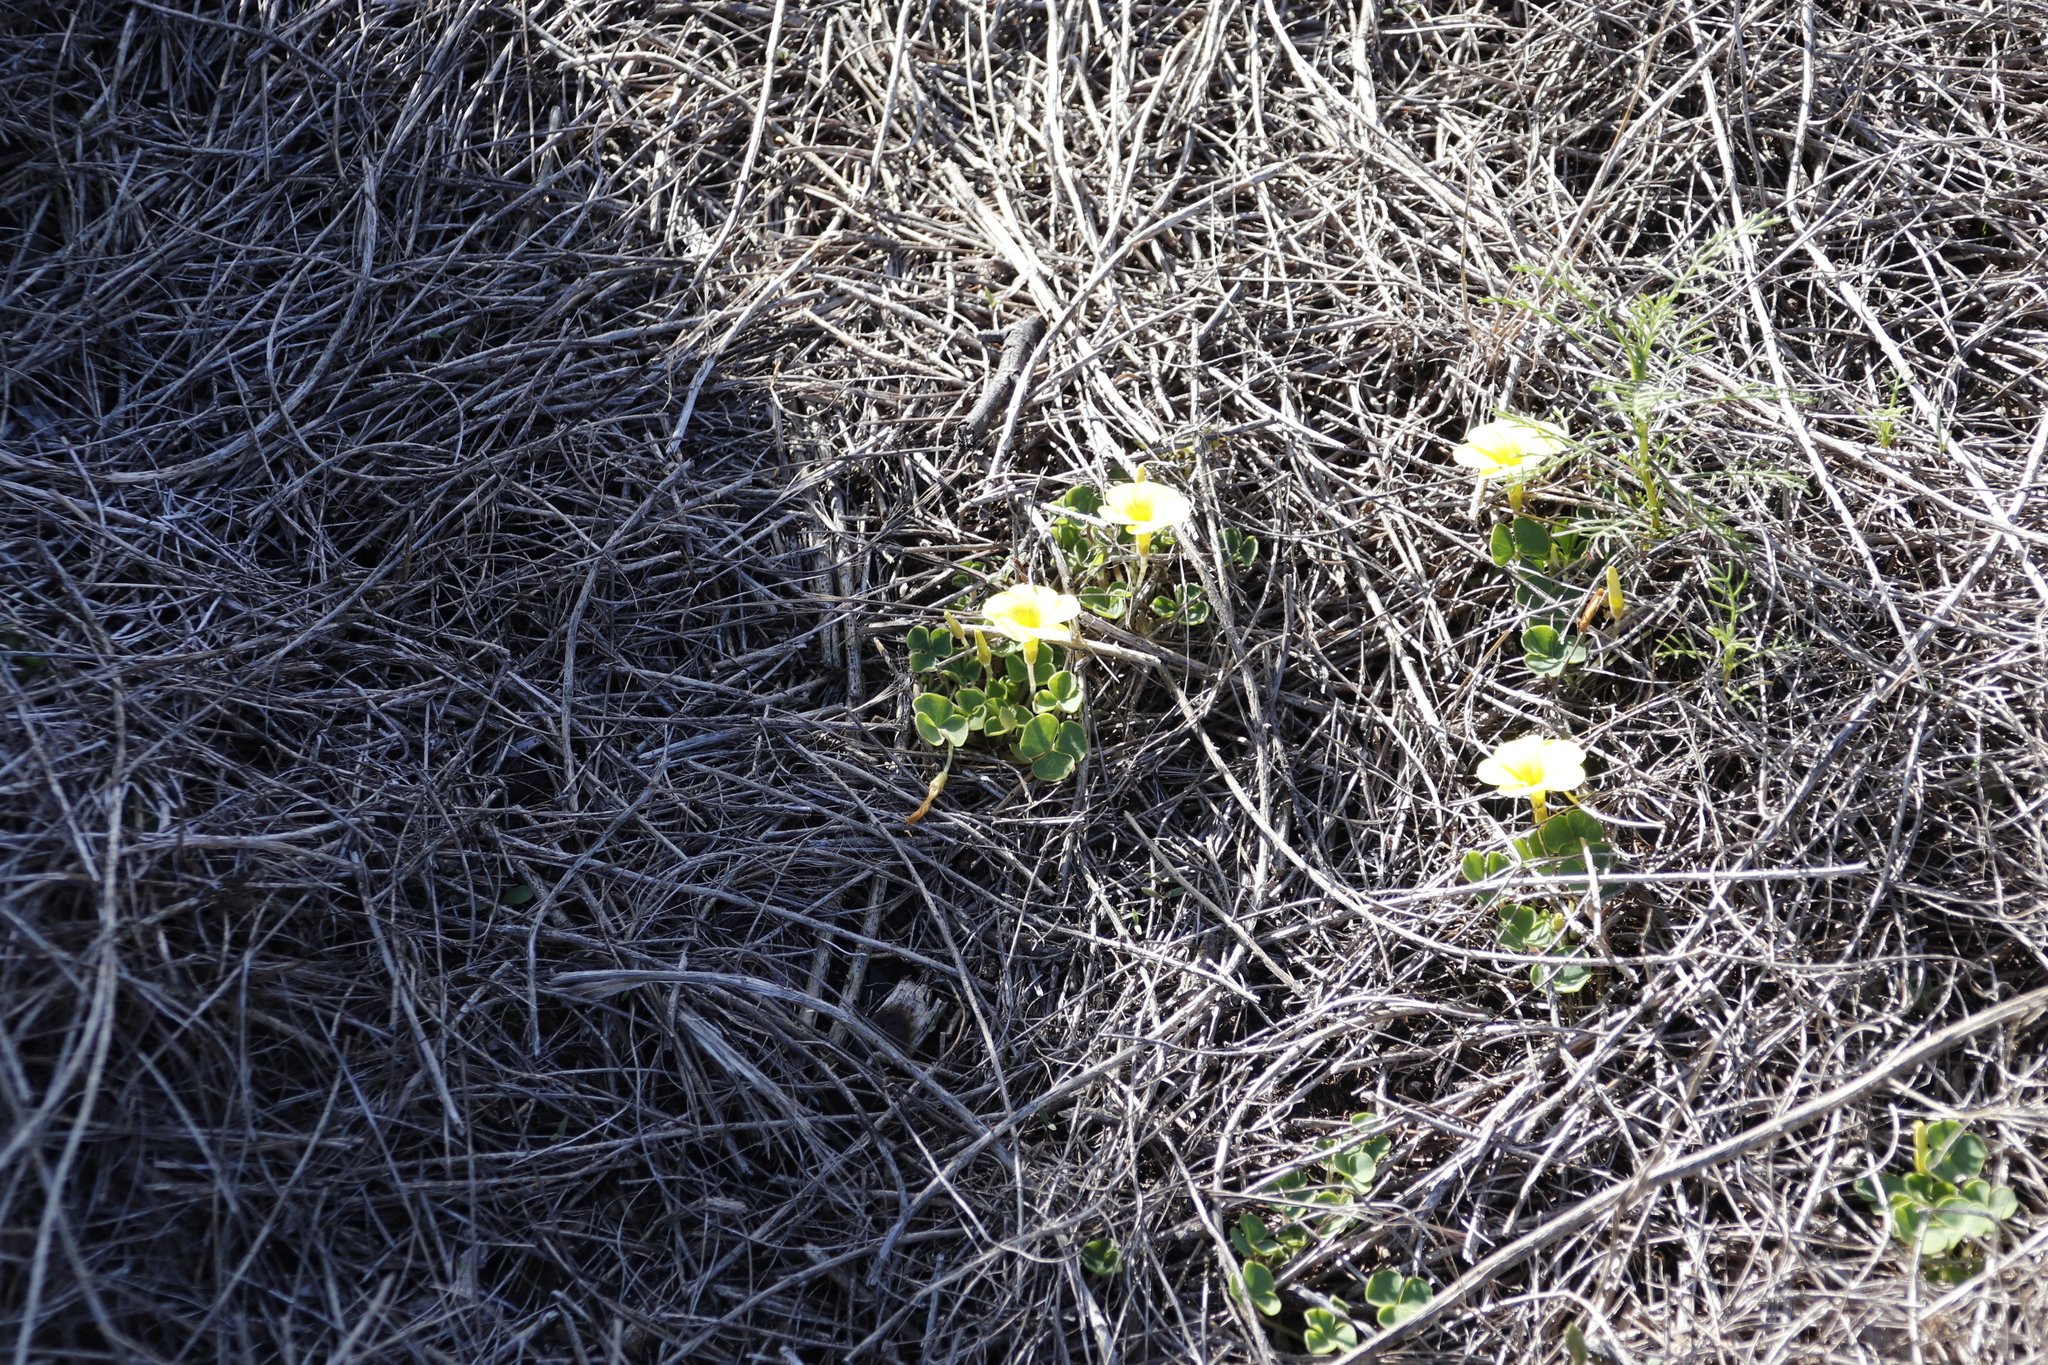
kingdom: Plantae
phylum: Tracheophyta
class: Magnoliopsida
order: Oxalidales
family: Oxalidaceae
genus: Oxalis
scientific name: Oxalis luteola
